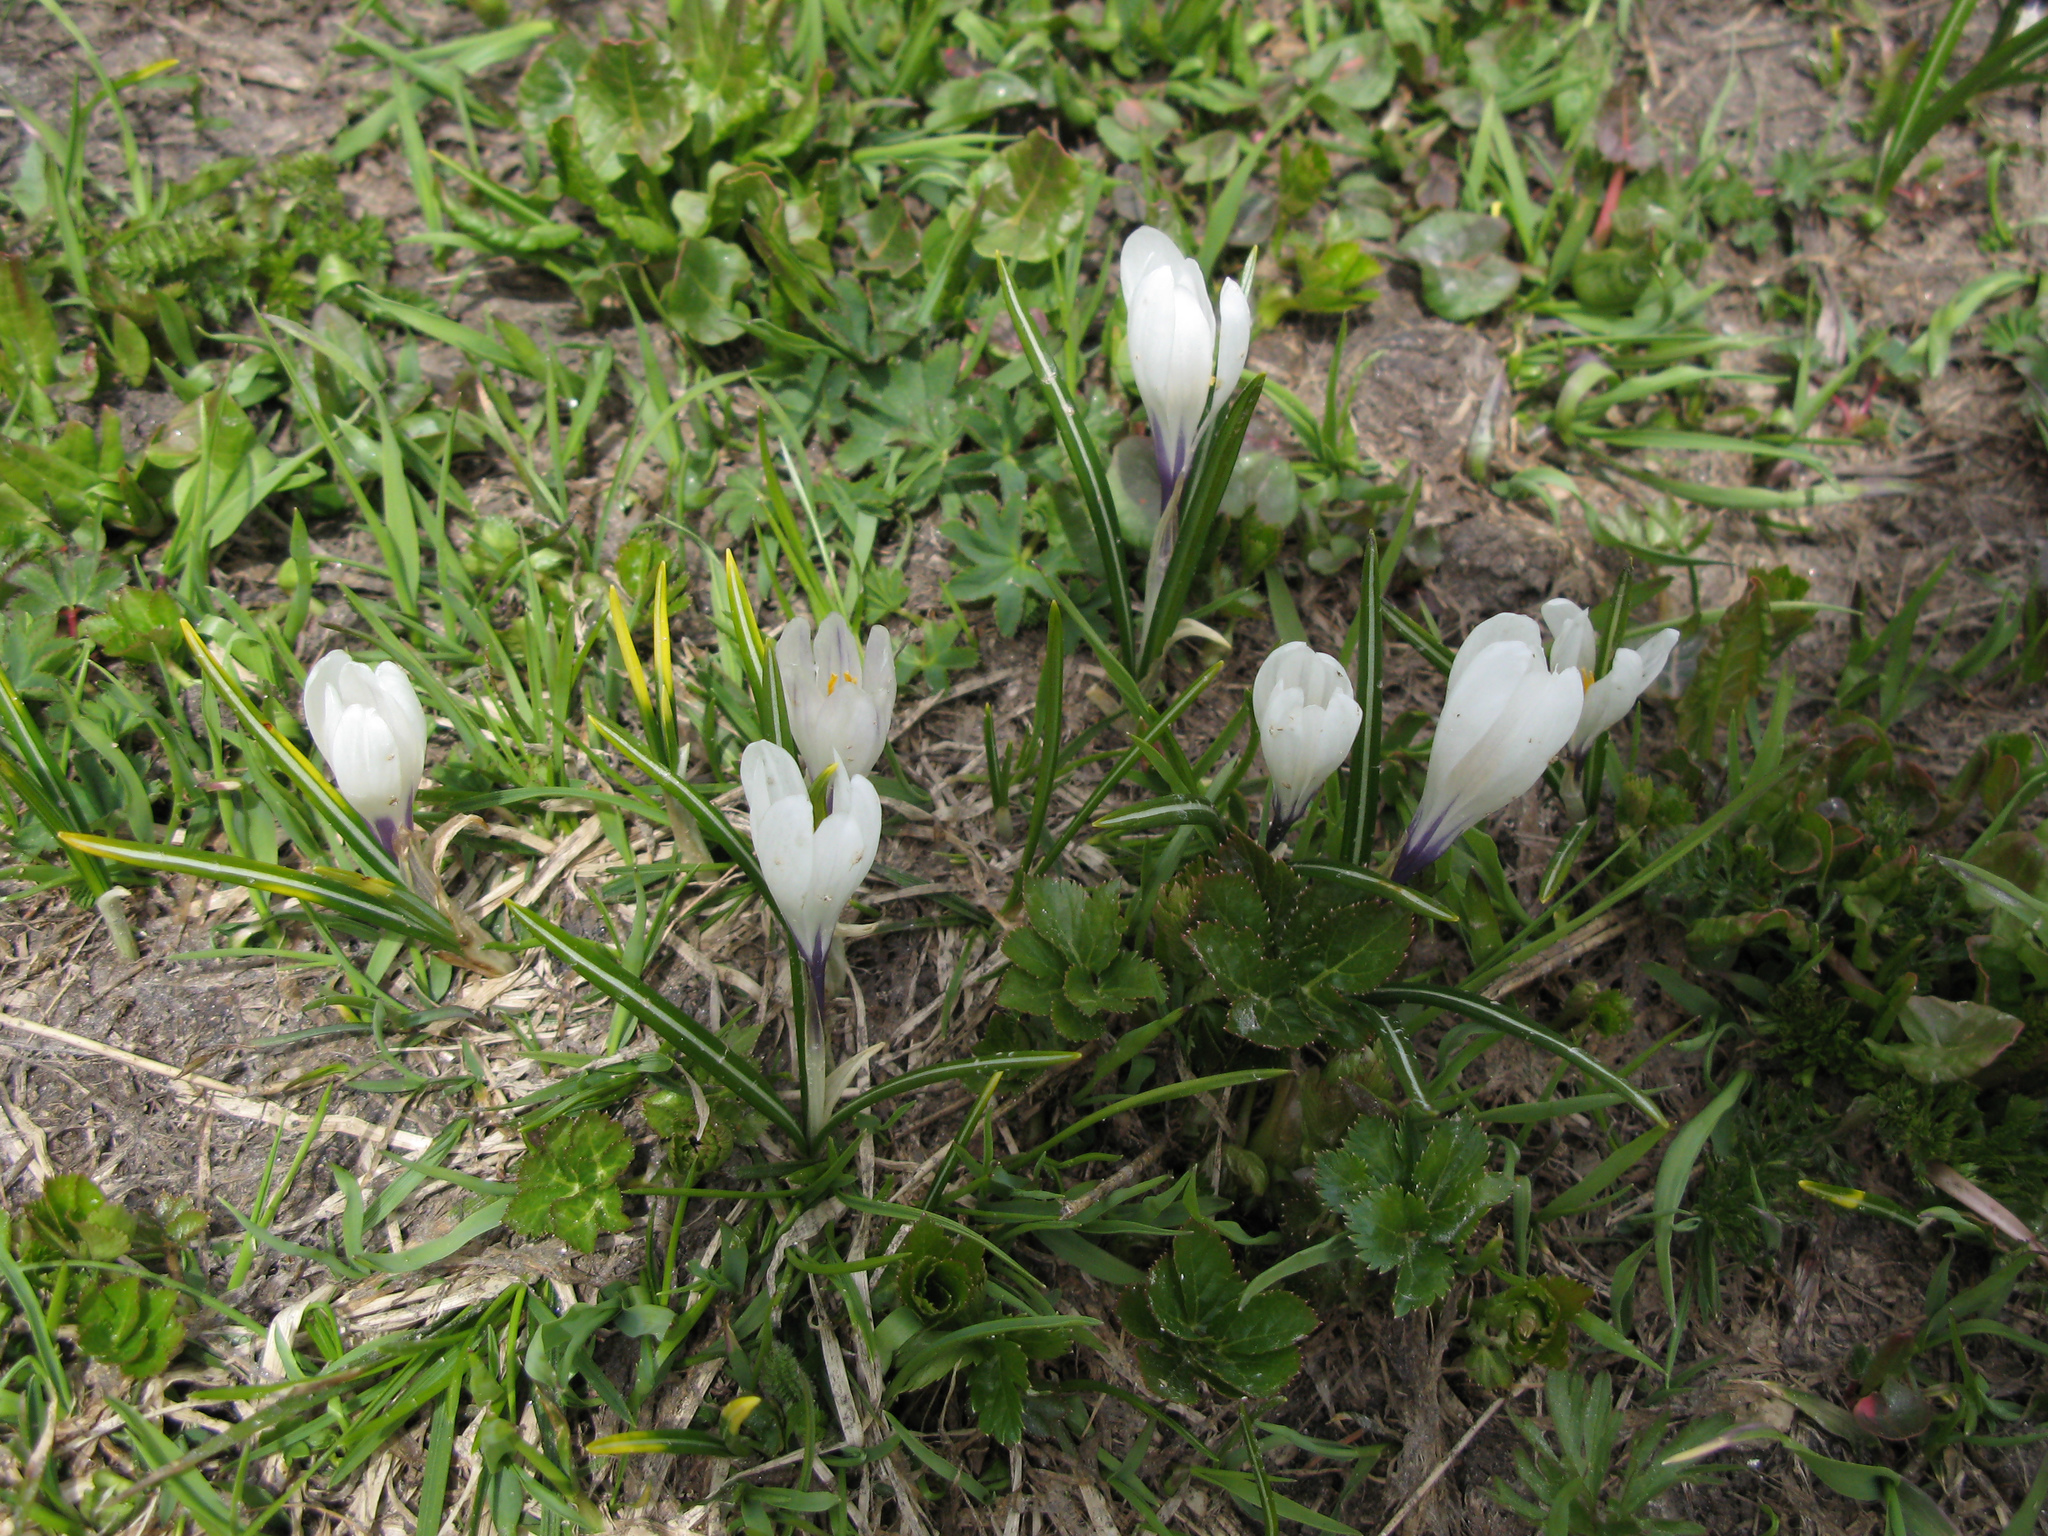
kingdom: Plantae
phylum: Tracheophyta
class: Liliopsida
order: Asparagales
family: Iridaceae
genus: Crocus
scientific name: Crocus vernus
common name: Spring crocus
